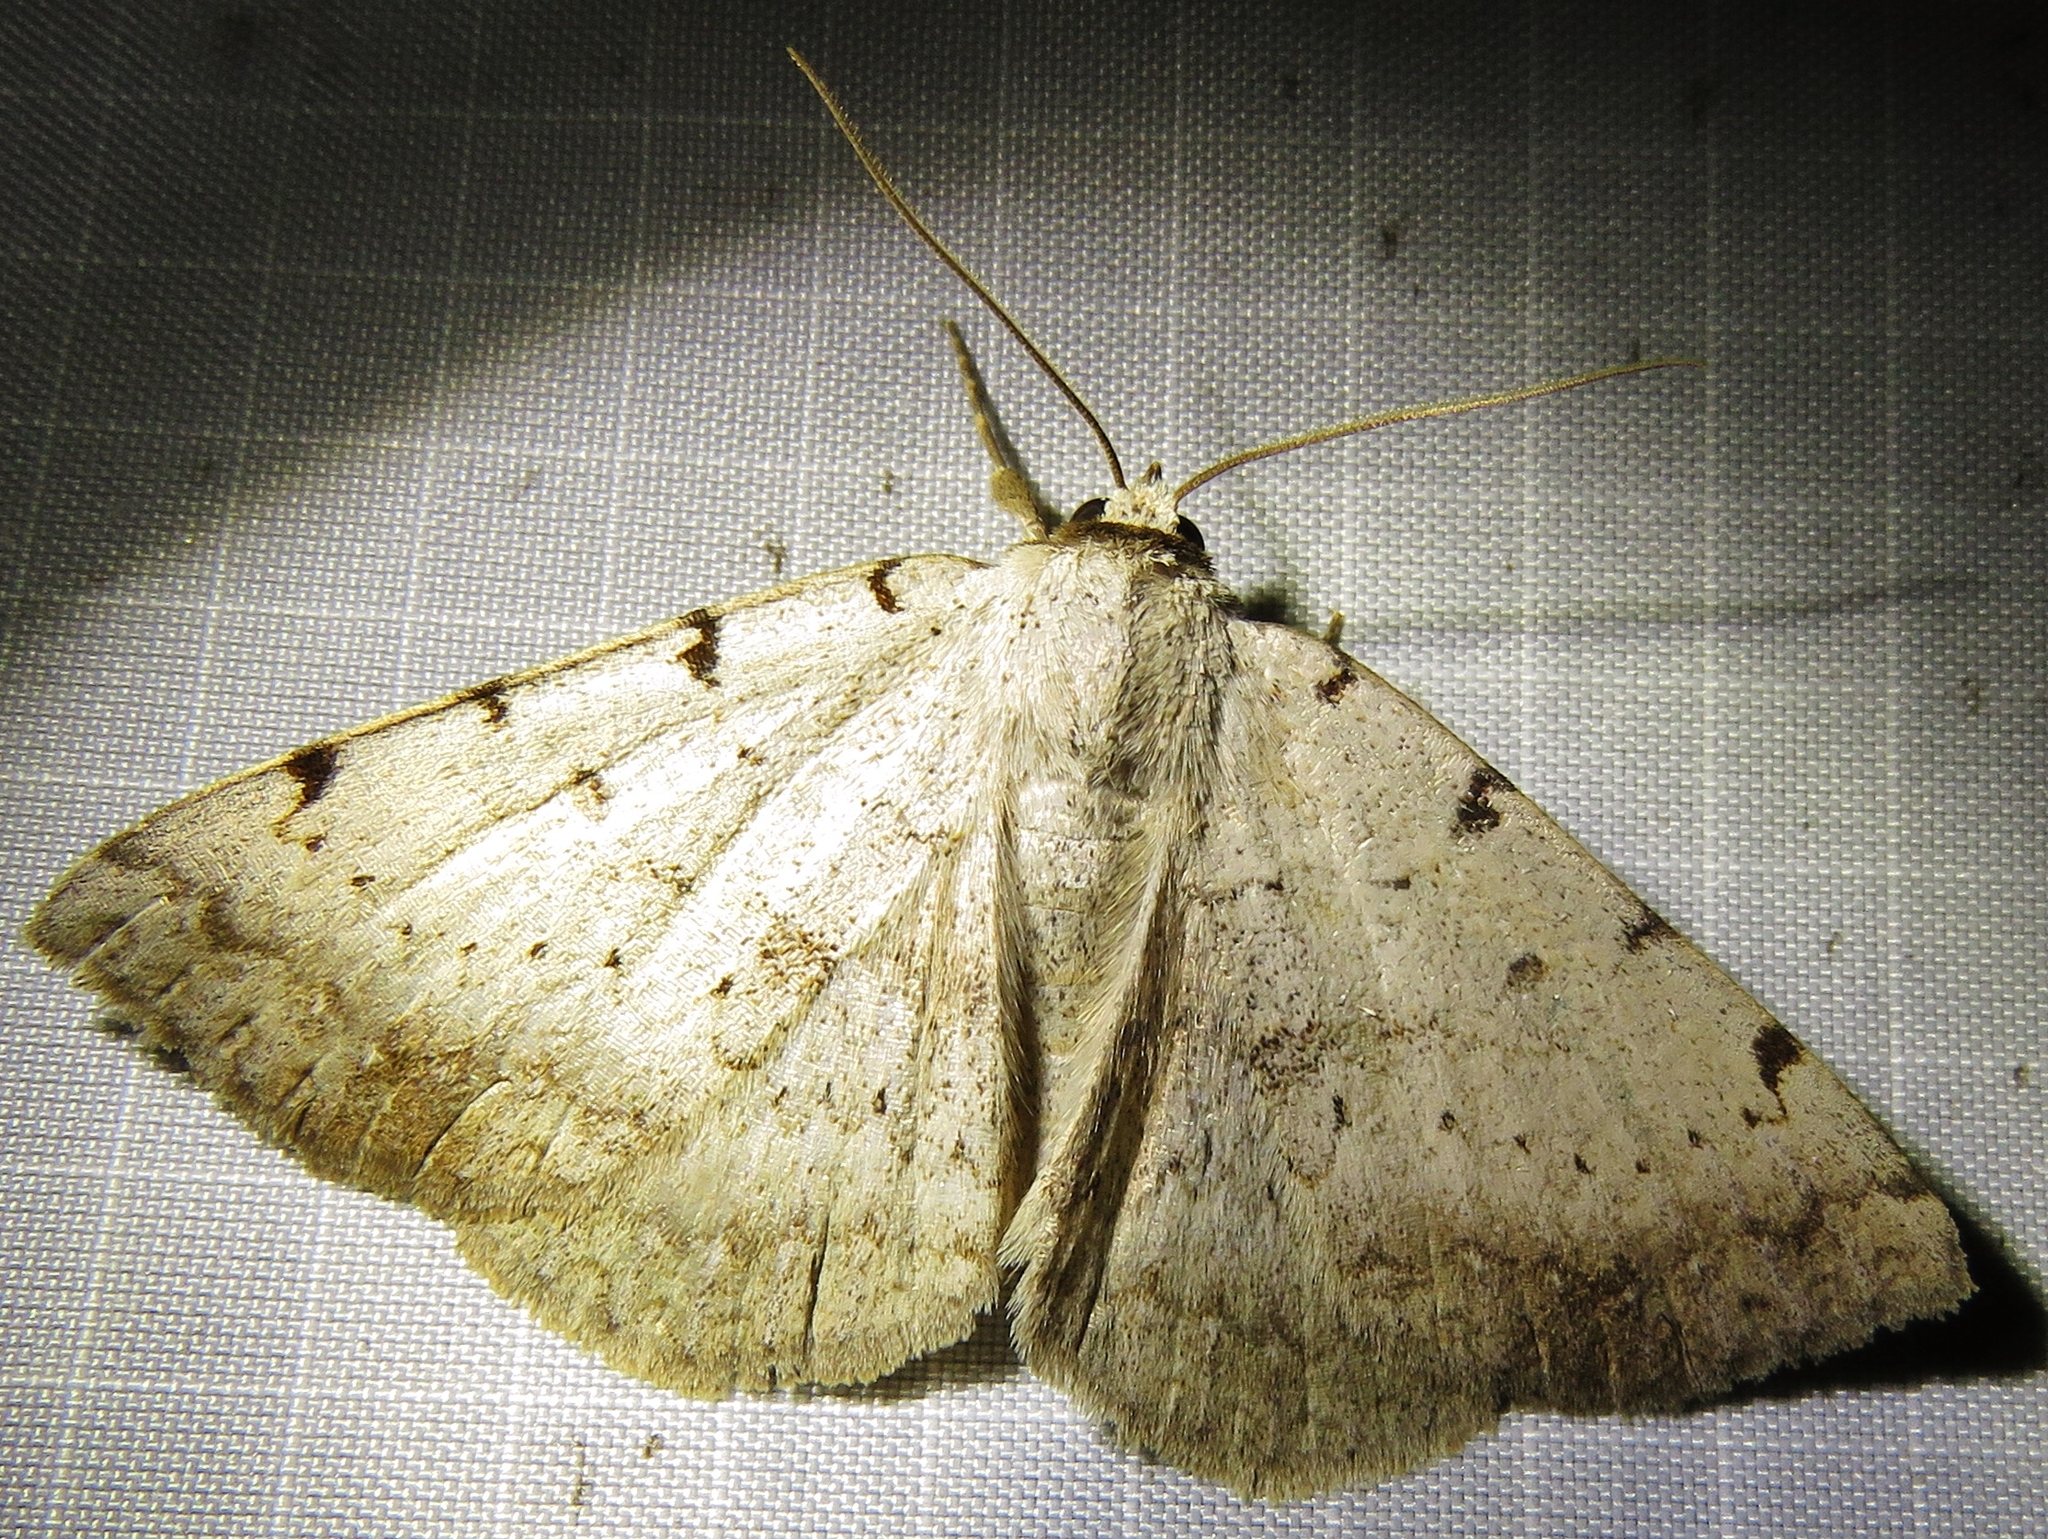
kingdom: Animalia
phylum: Arthropoda
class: Insecta
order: Lepidoptera
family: Erebidae
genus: Spiloloma
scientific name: Spiloloma lunilinea
